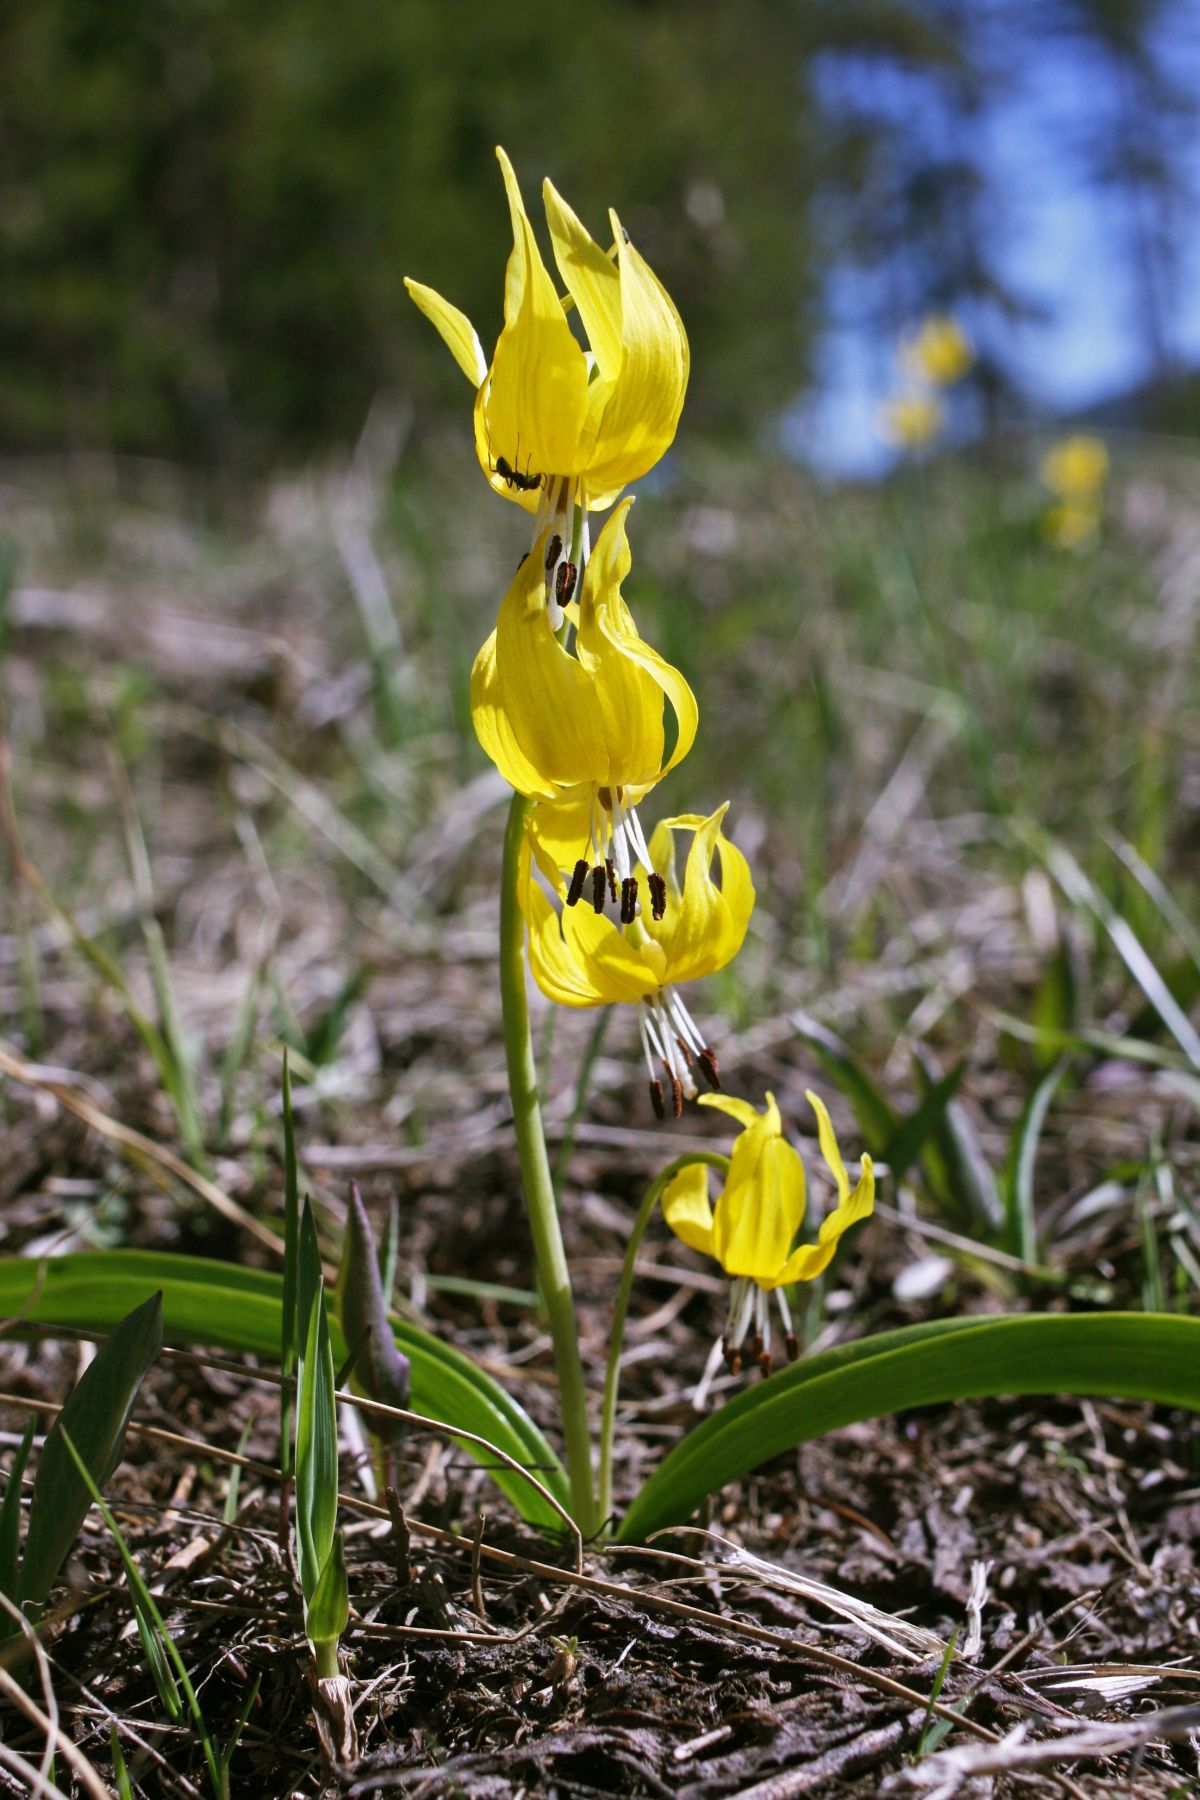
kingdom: Plantae
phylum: Tracheophyta
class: Liliopsida
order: Liliales
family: Liliaceae
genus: Erythronium
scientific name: Erythronium grandiflorum
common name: Avalanche-lily
